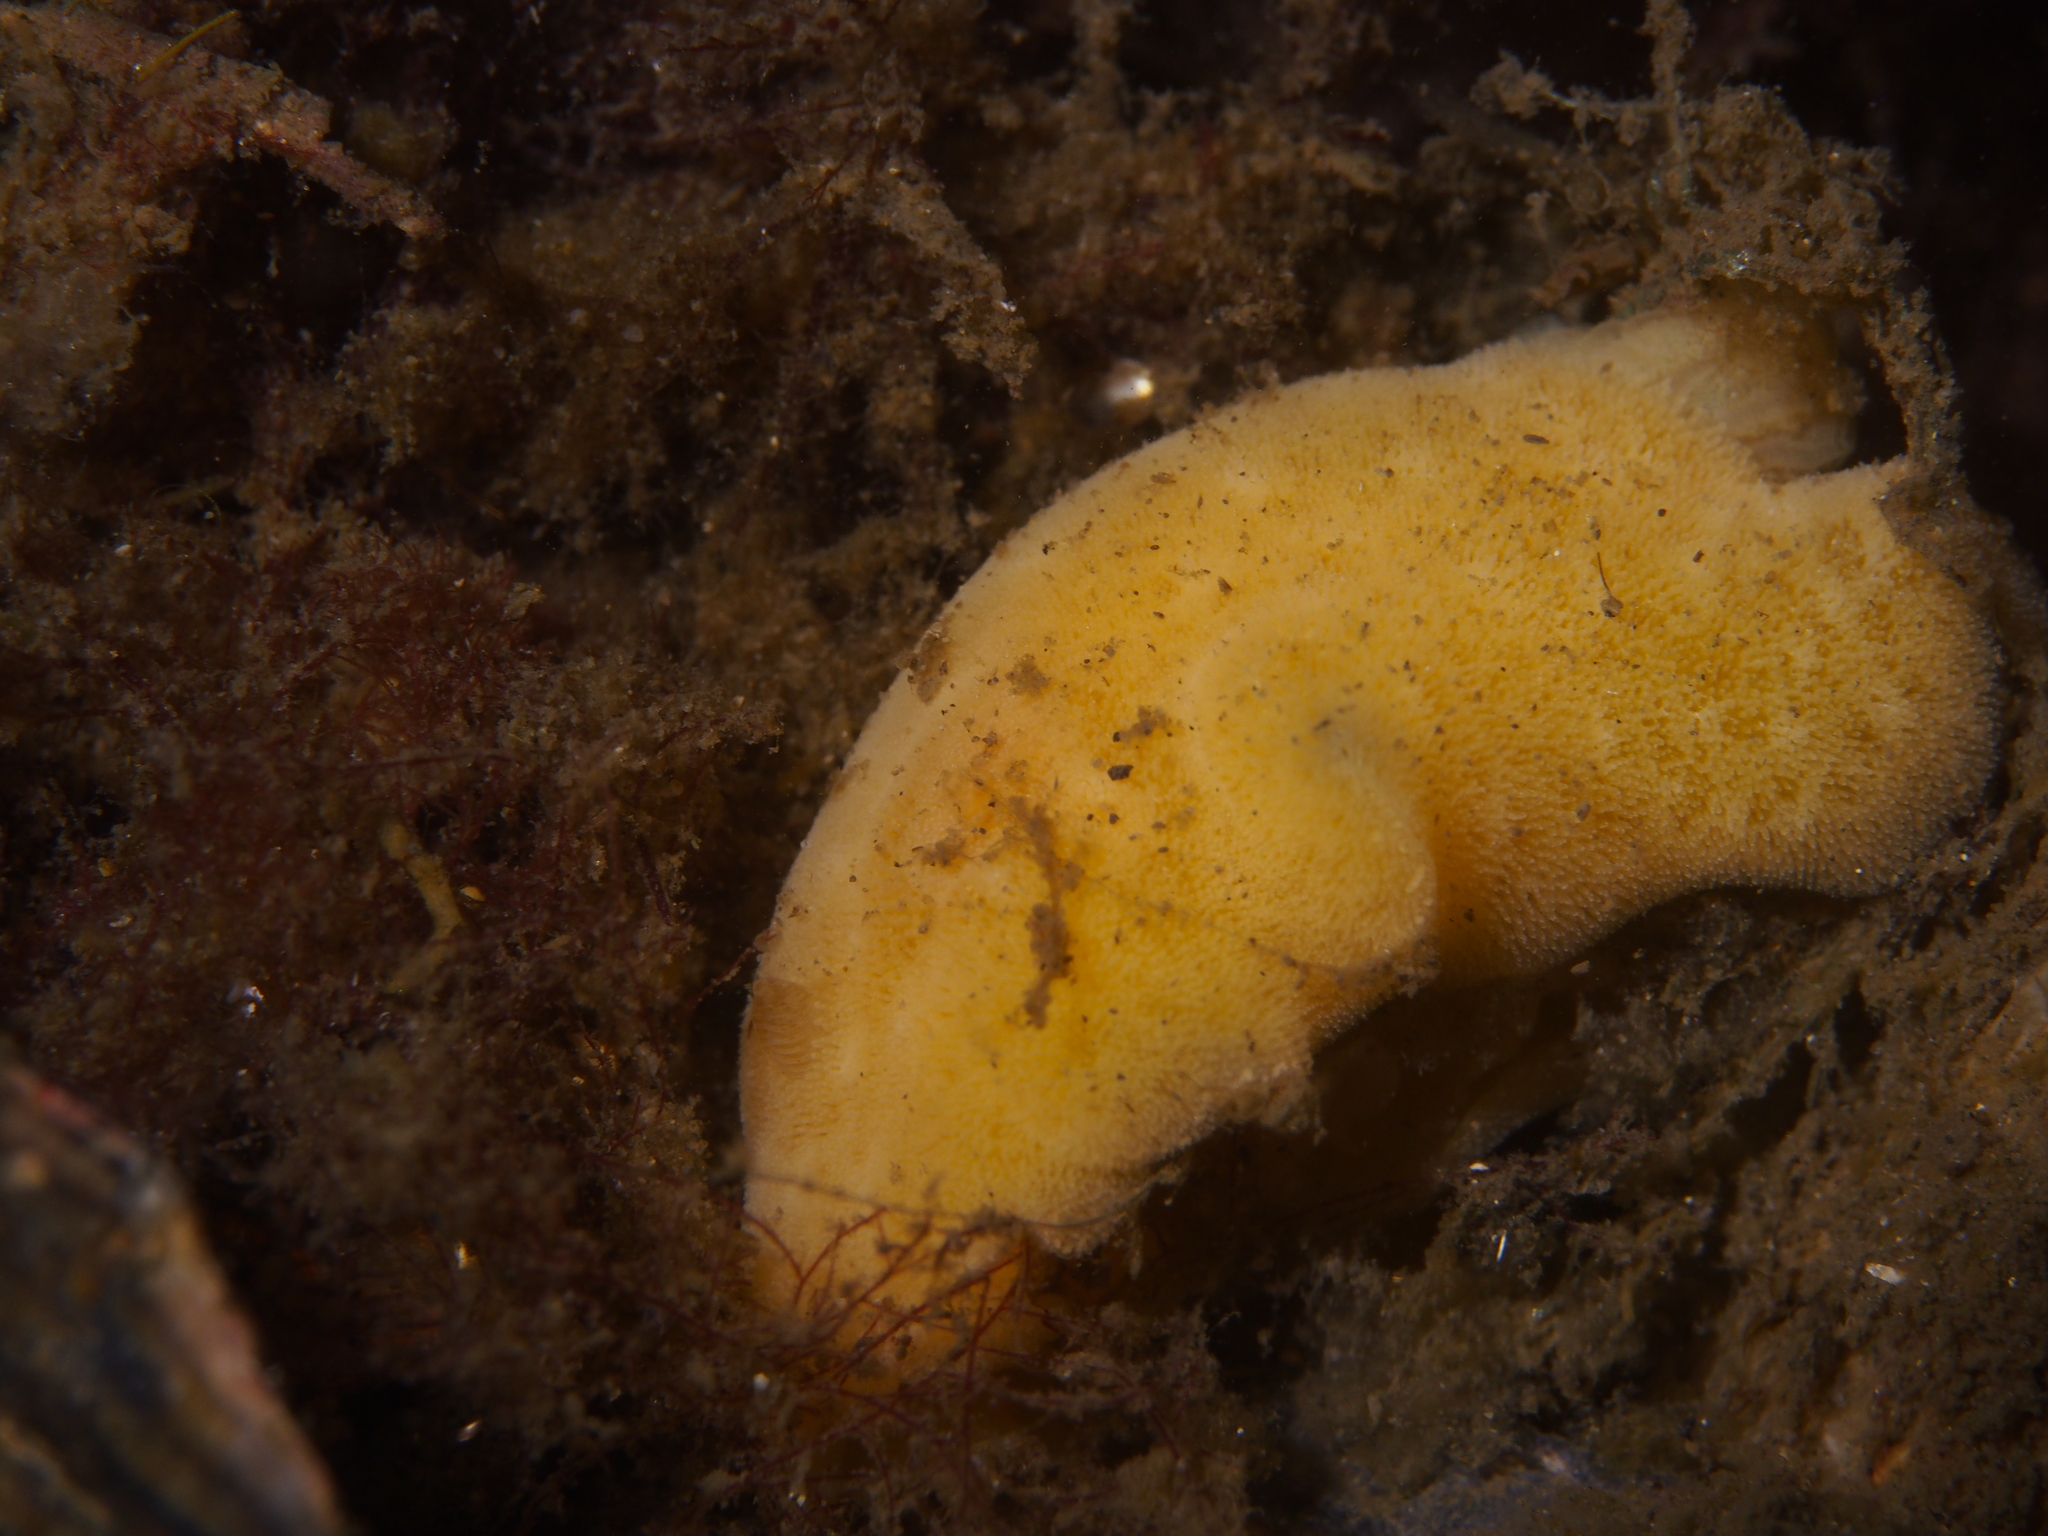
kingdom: Animalia
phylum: Mollusca
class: Gastropoda
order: Nudibranchia
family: Discodorididae
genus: Jorunna
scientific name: Jorunna tomentosa
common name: Grey sea slug
